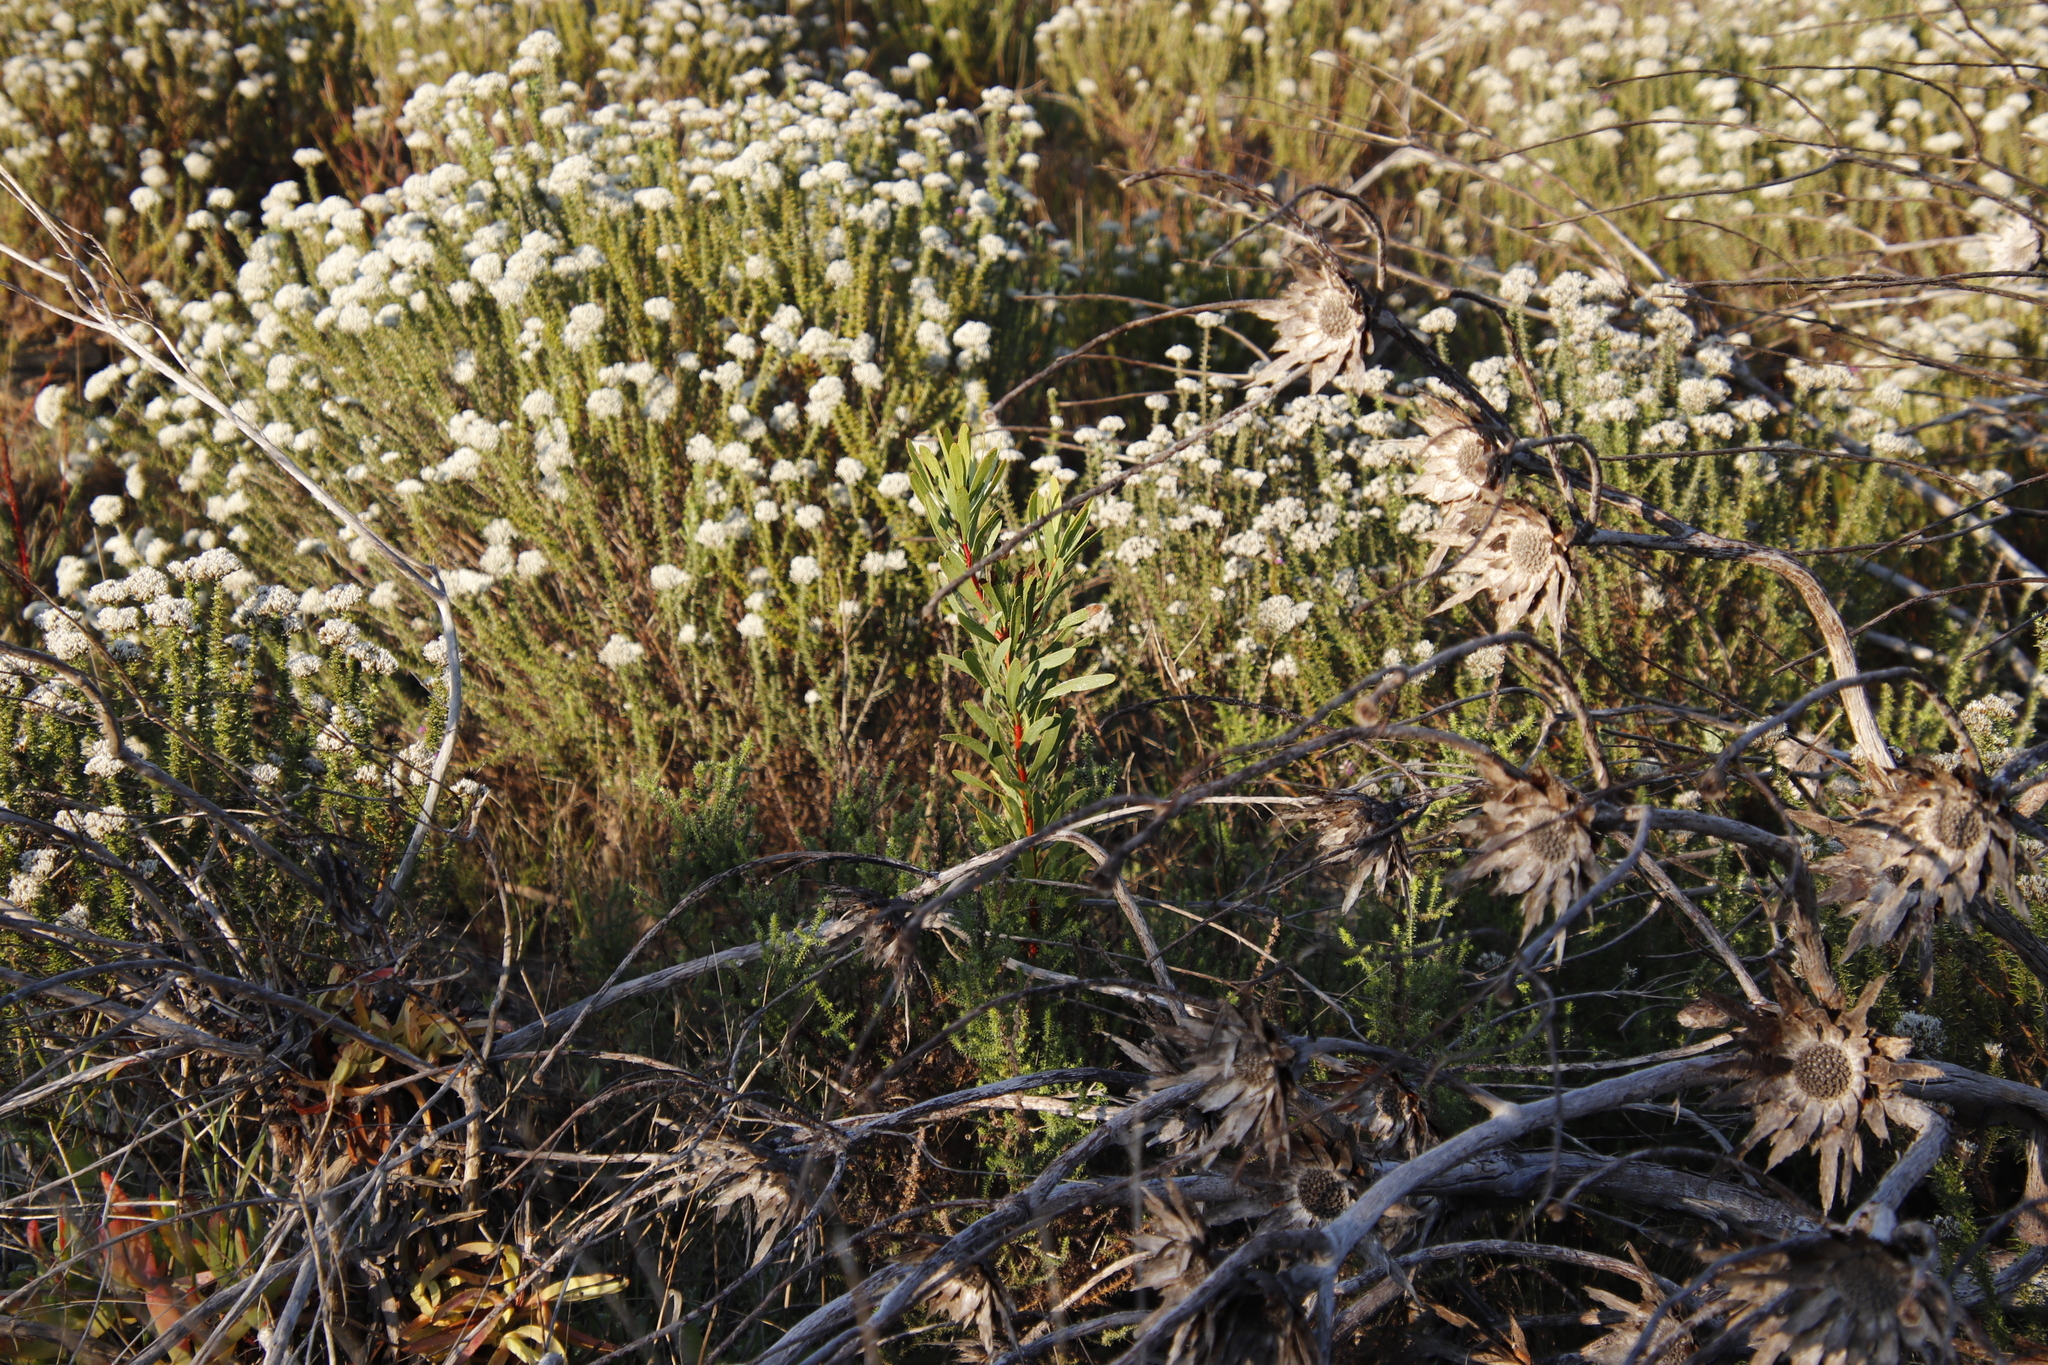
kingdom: Plantae
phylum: Tracheophyta
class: Magnoliopsida
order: Proteales
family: Proteaceae
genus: Protea
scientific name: Protea repens
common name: Sugarbush
